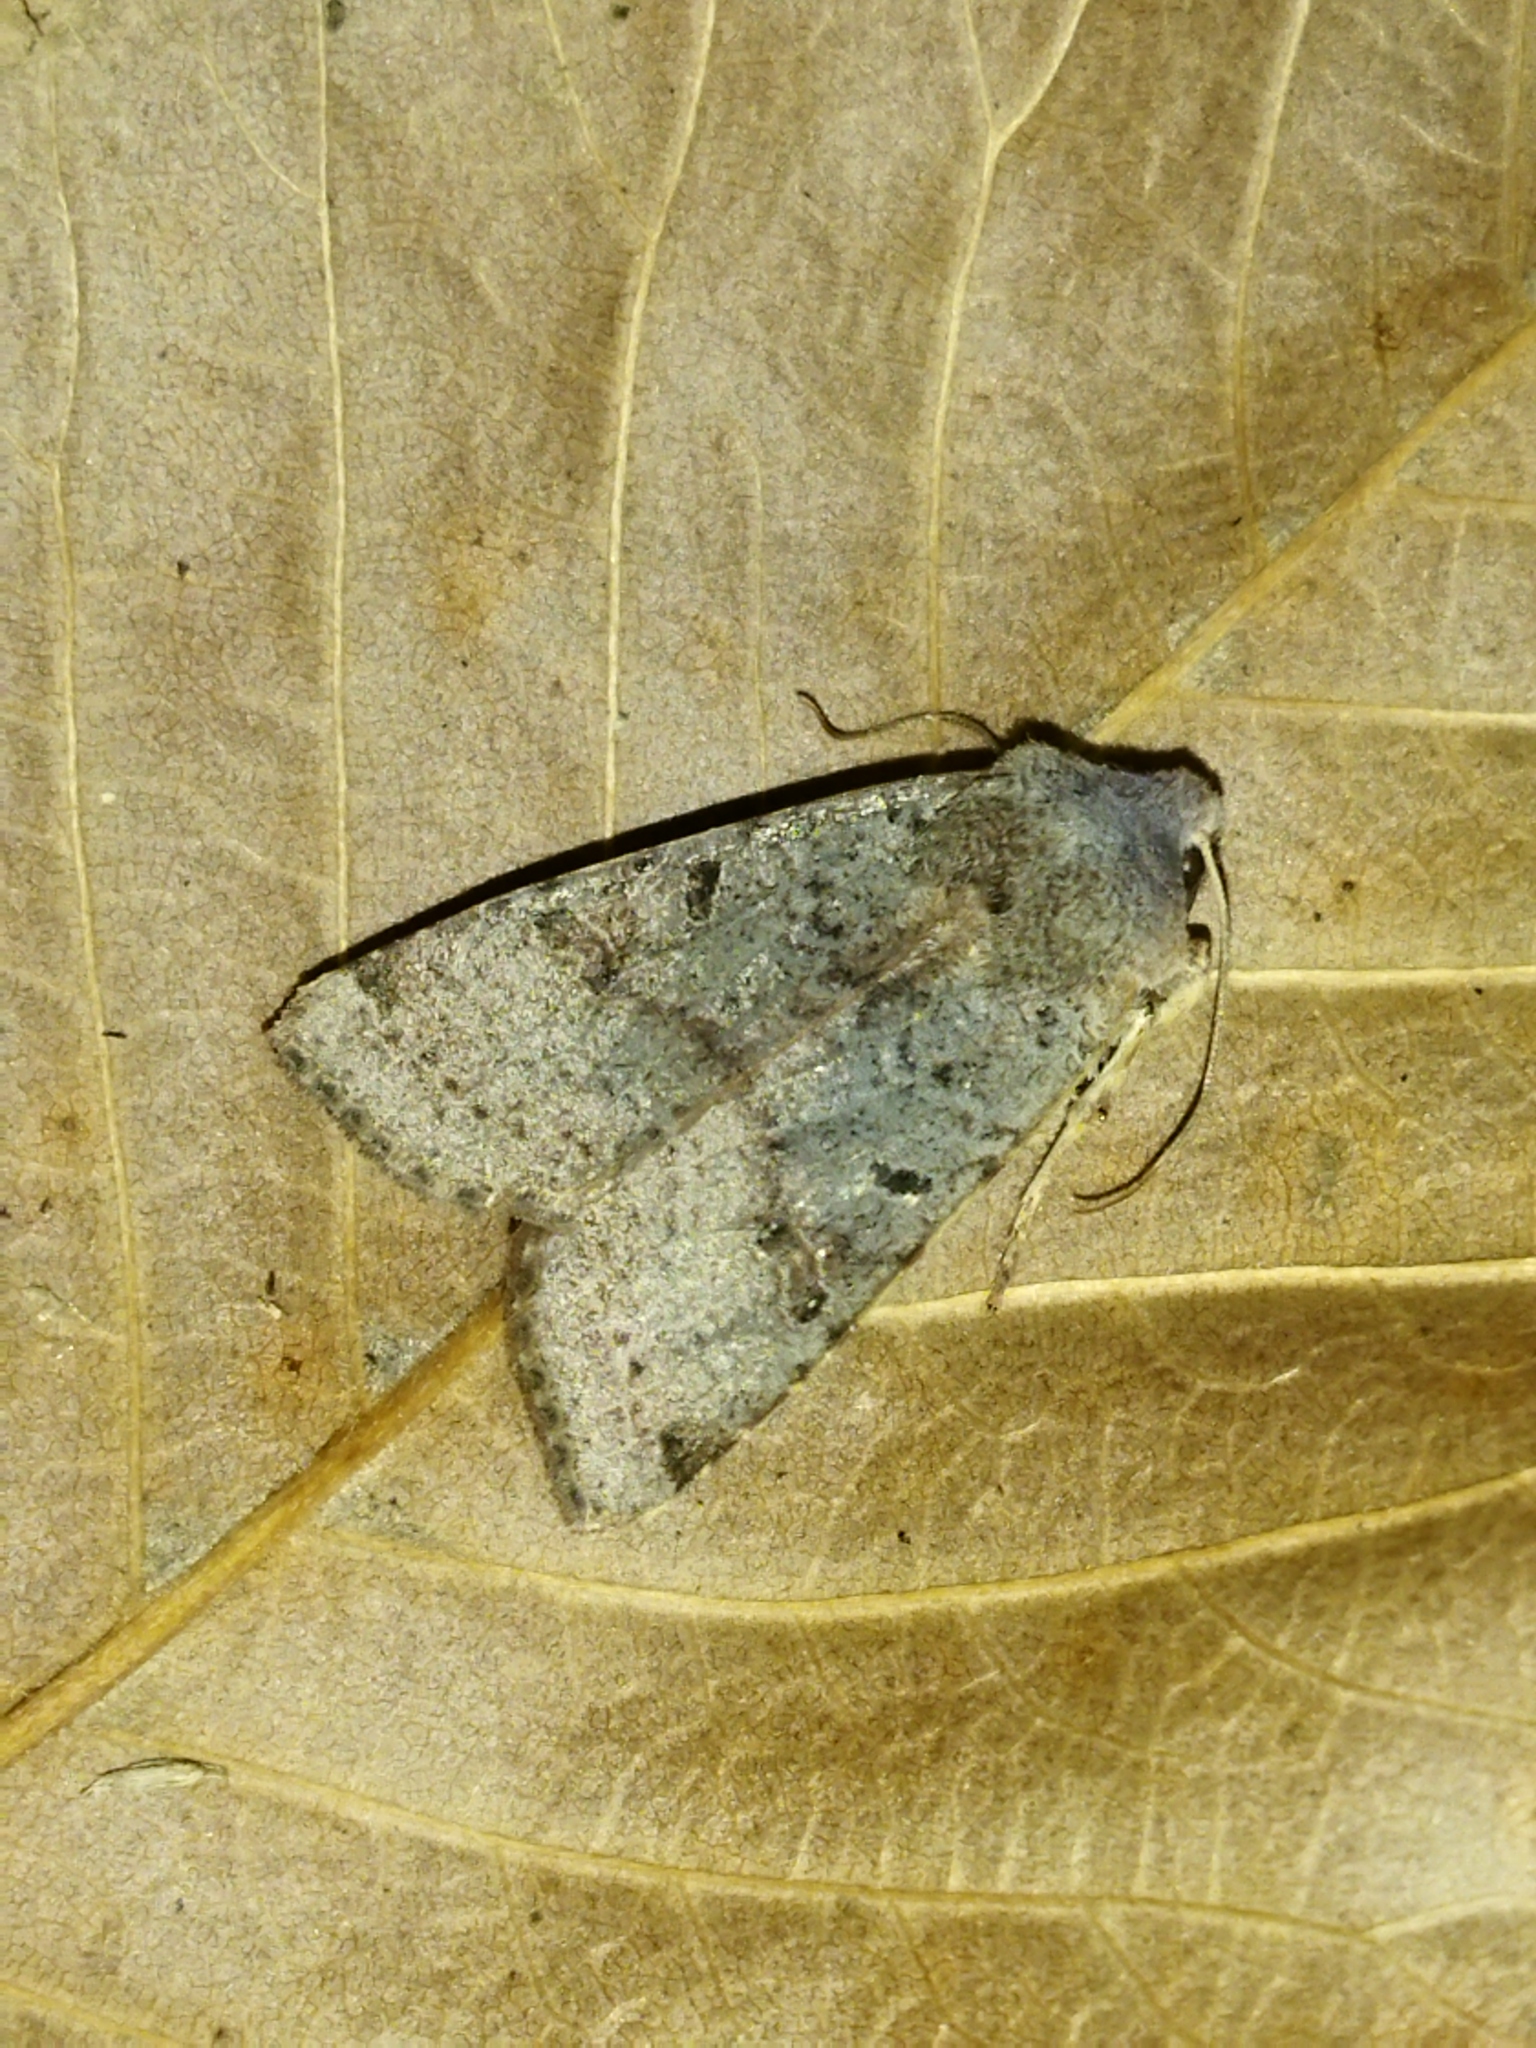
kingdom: Animalia
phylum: Arthropoda
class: Insecta
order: Lepidoptera
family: Noctuidae
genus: Agrochola
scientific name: Agrochola lychnidis
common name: Beaded chestnut
